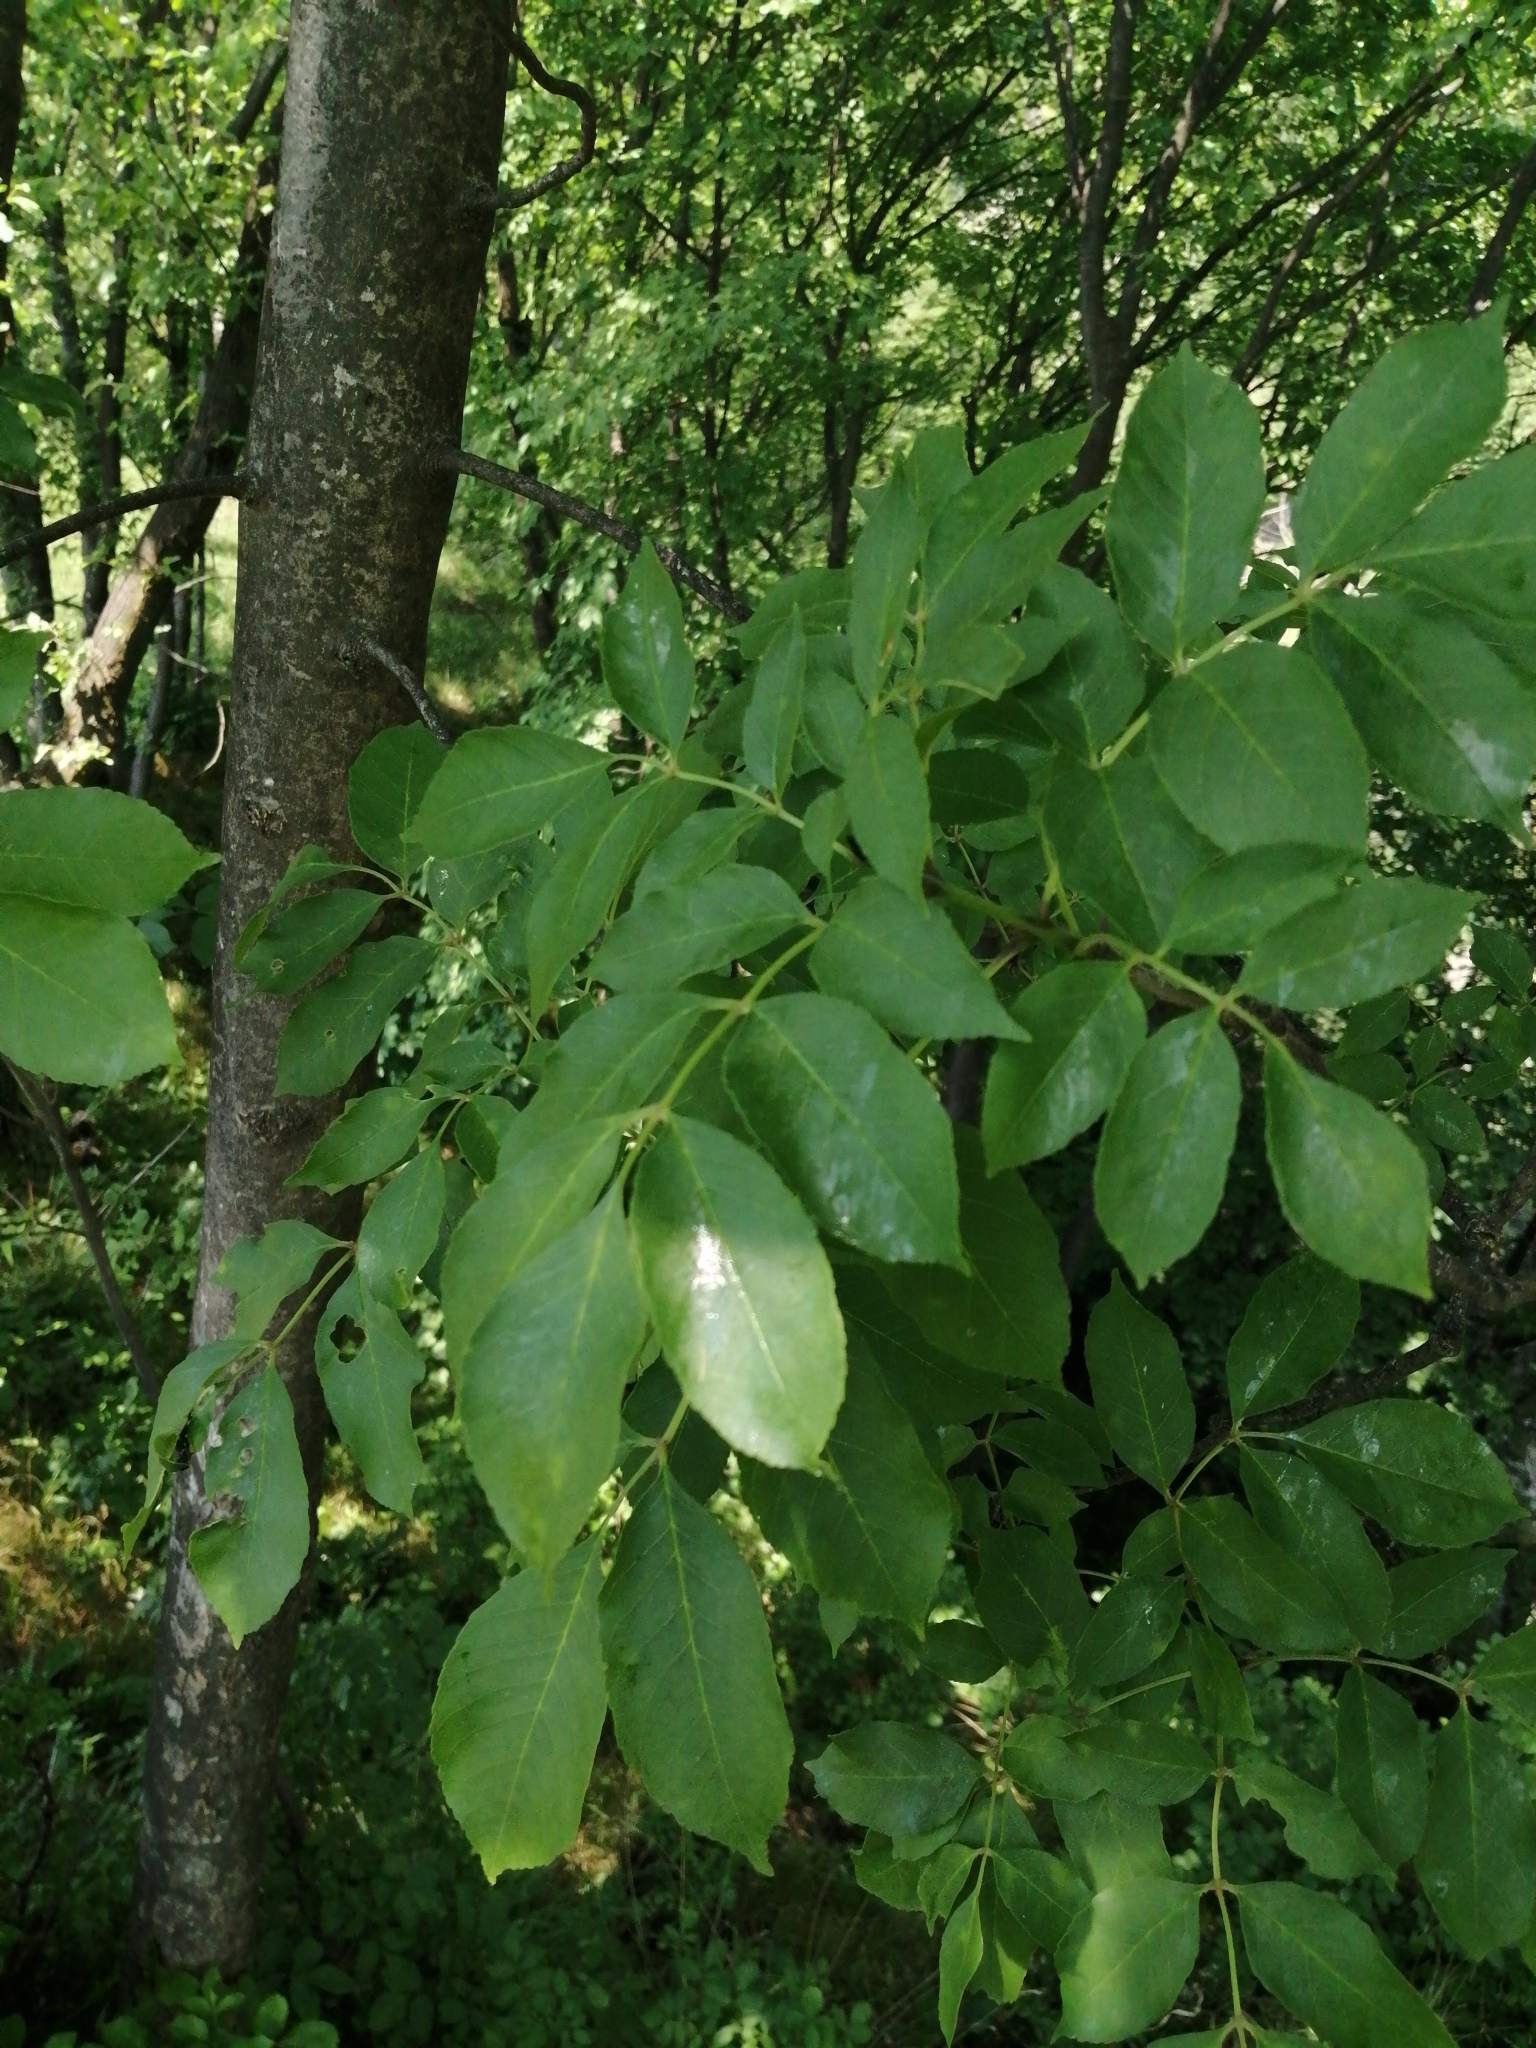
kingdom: Plantae
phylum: Tracheophyta
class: Magnoliopsida
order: Dipsacales
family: Viburnaceae
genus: Sambucus
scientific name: Sambucus nigra
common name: Elder
